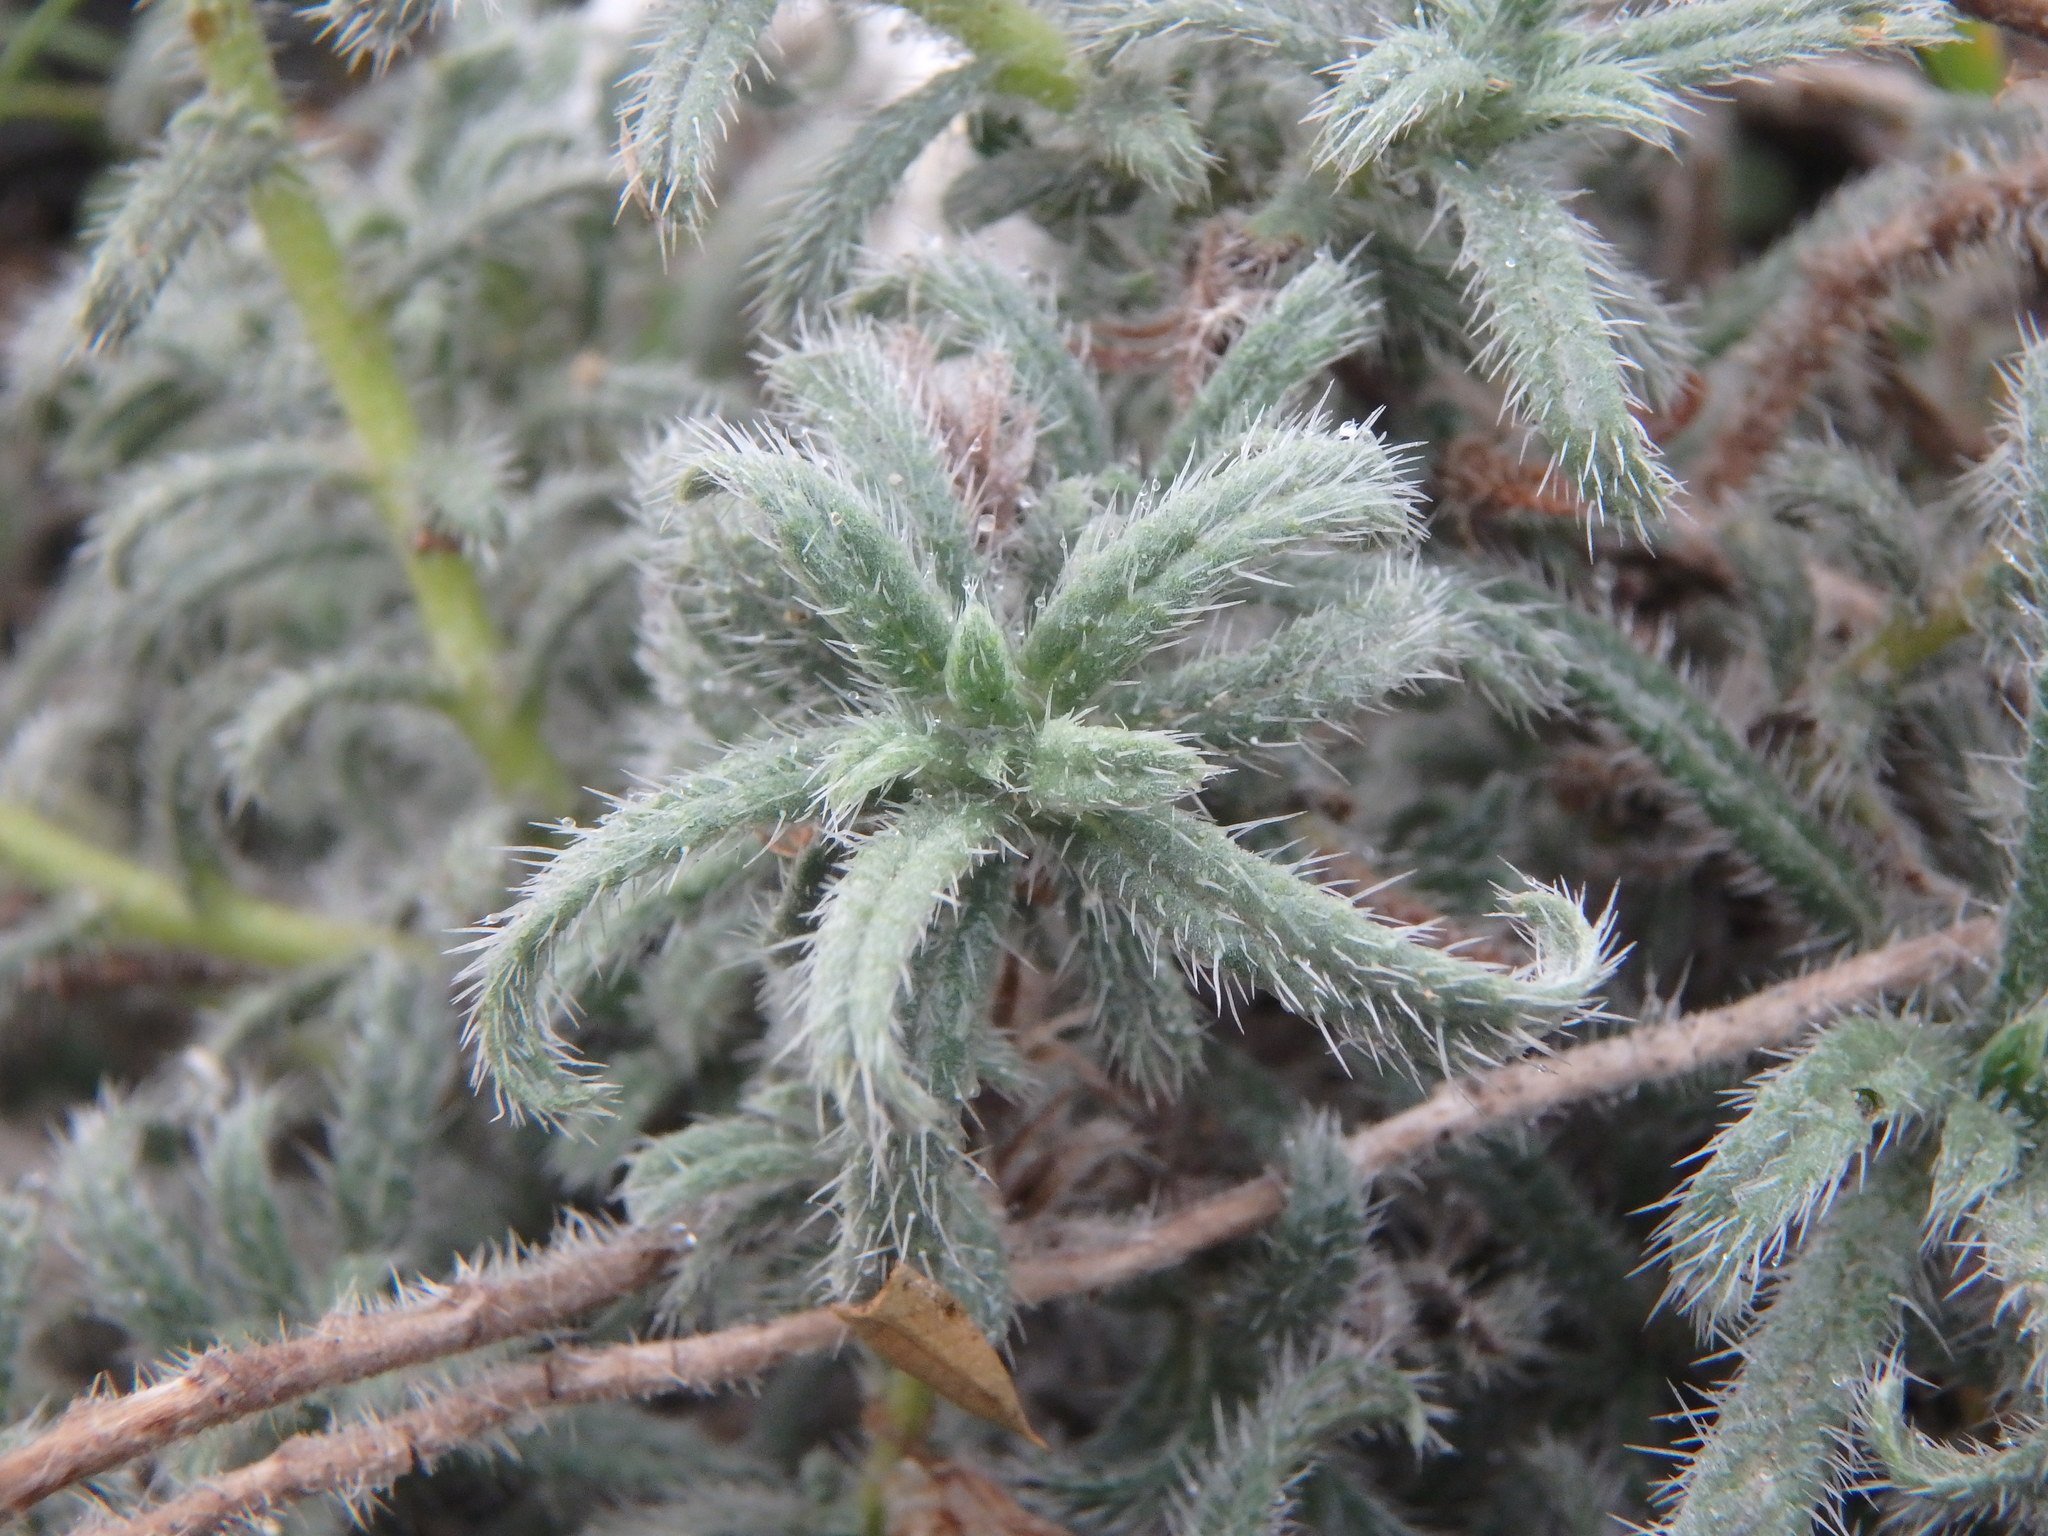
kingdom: Plantae
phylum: Tracheophyta
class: Magnoliopsida
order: Boraginales
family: Boraginaceae
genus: Echium
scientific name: Echium angustifolium
